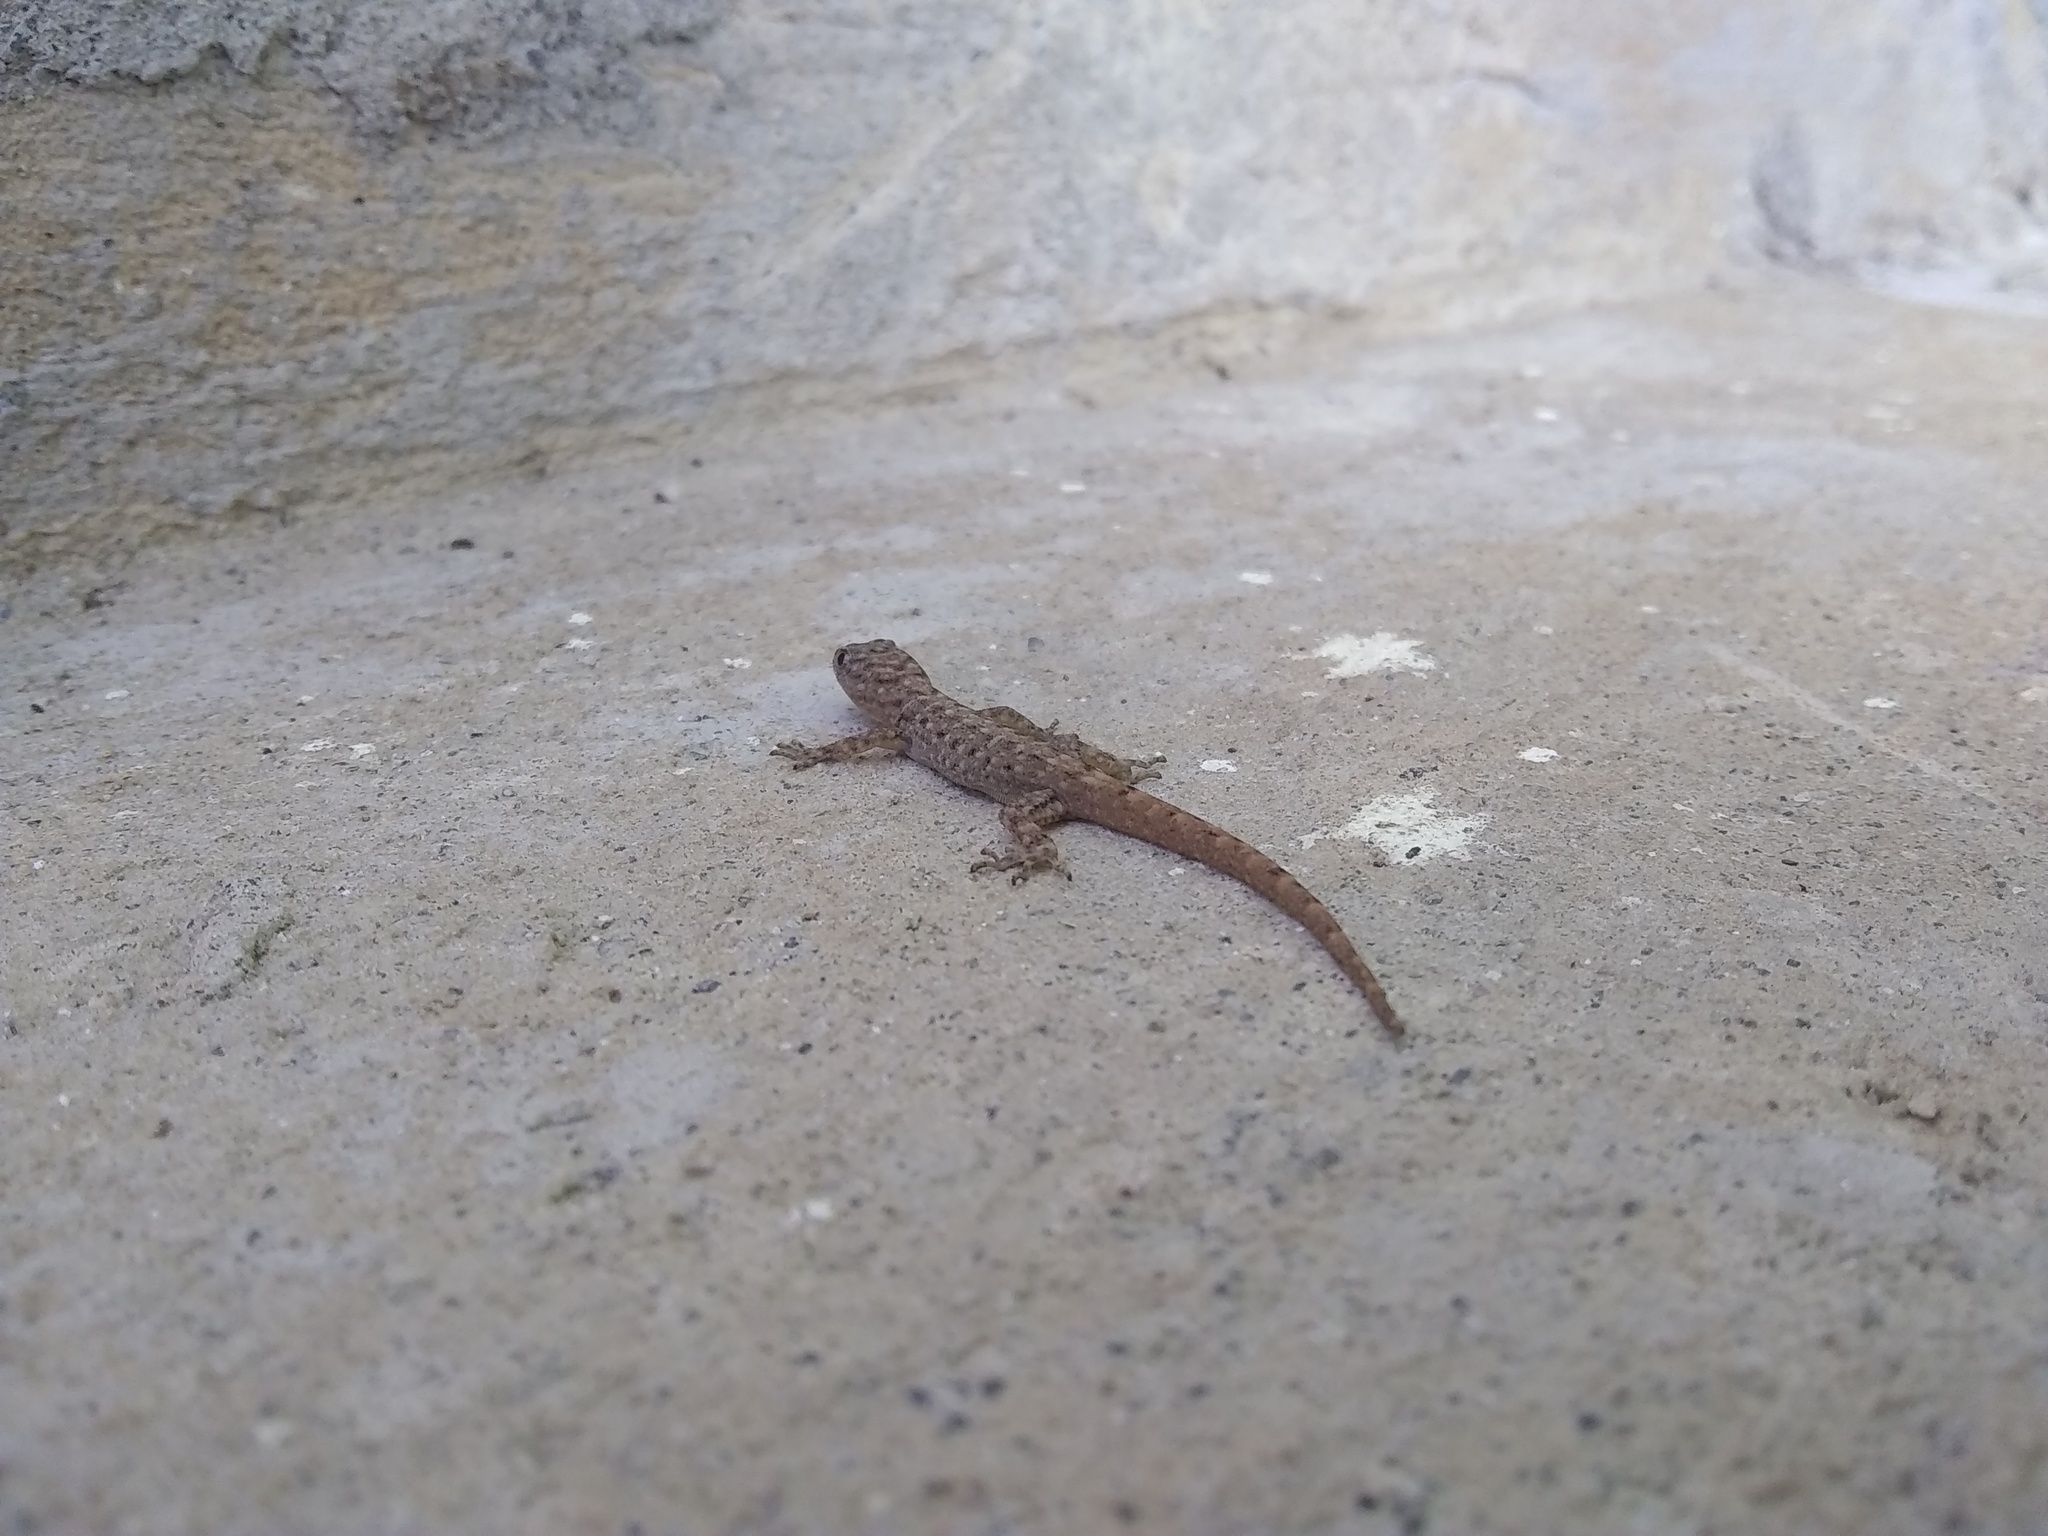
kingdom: Animalia
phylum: Chordata
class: Squamata
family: Sphaerodactylidae
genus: Gonatodes
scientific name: Gonatodes albogularis
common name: Yellow-headed gecko
